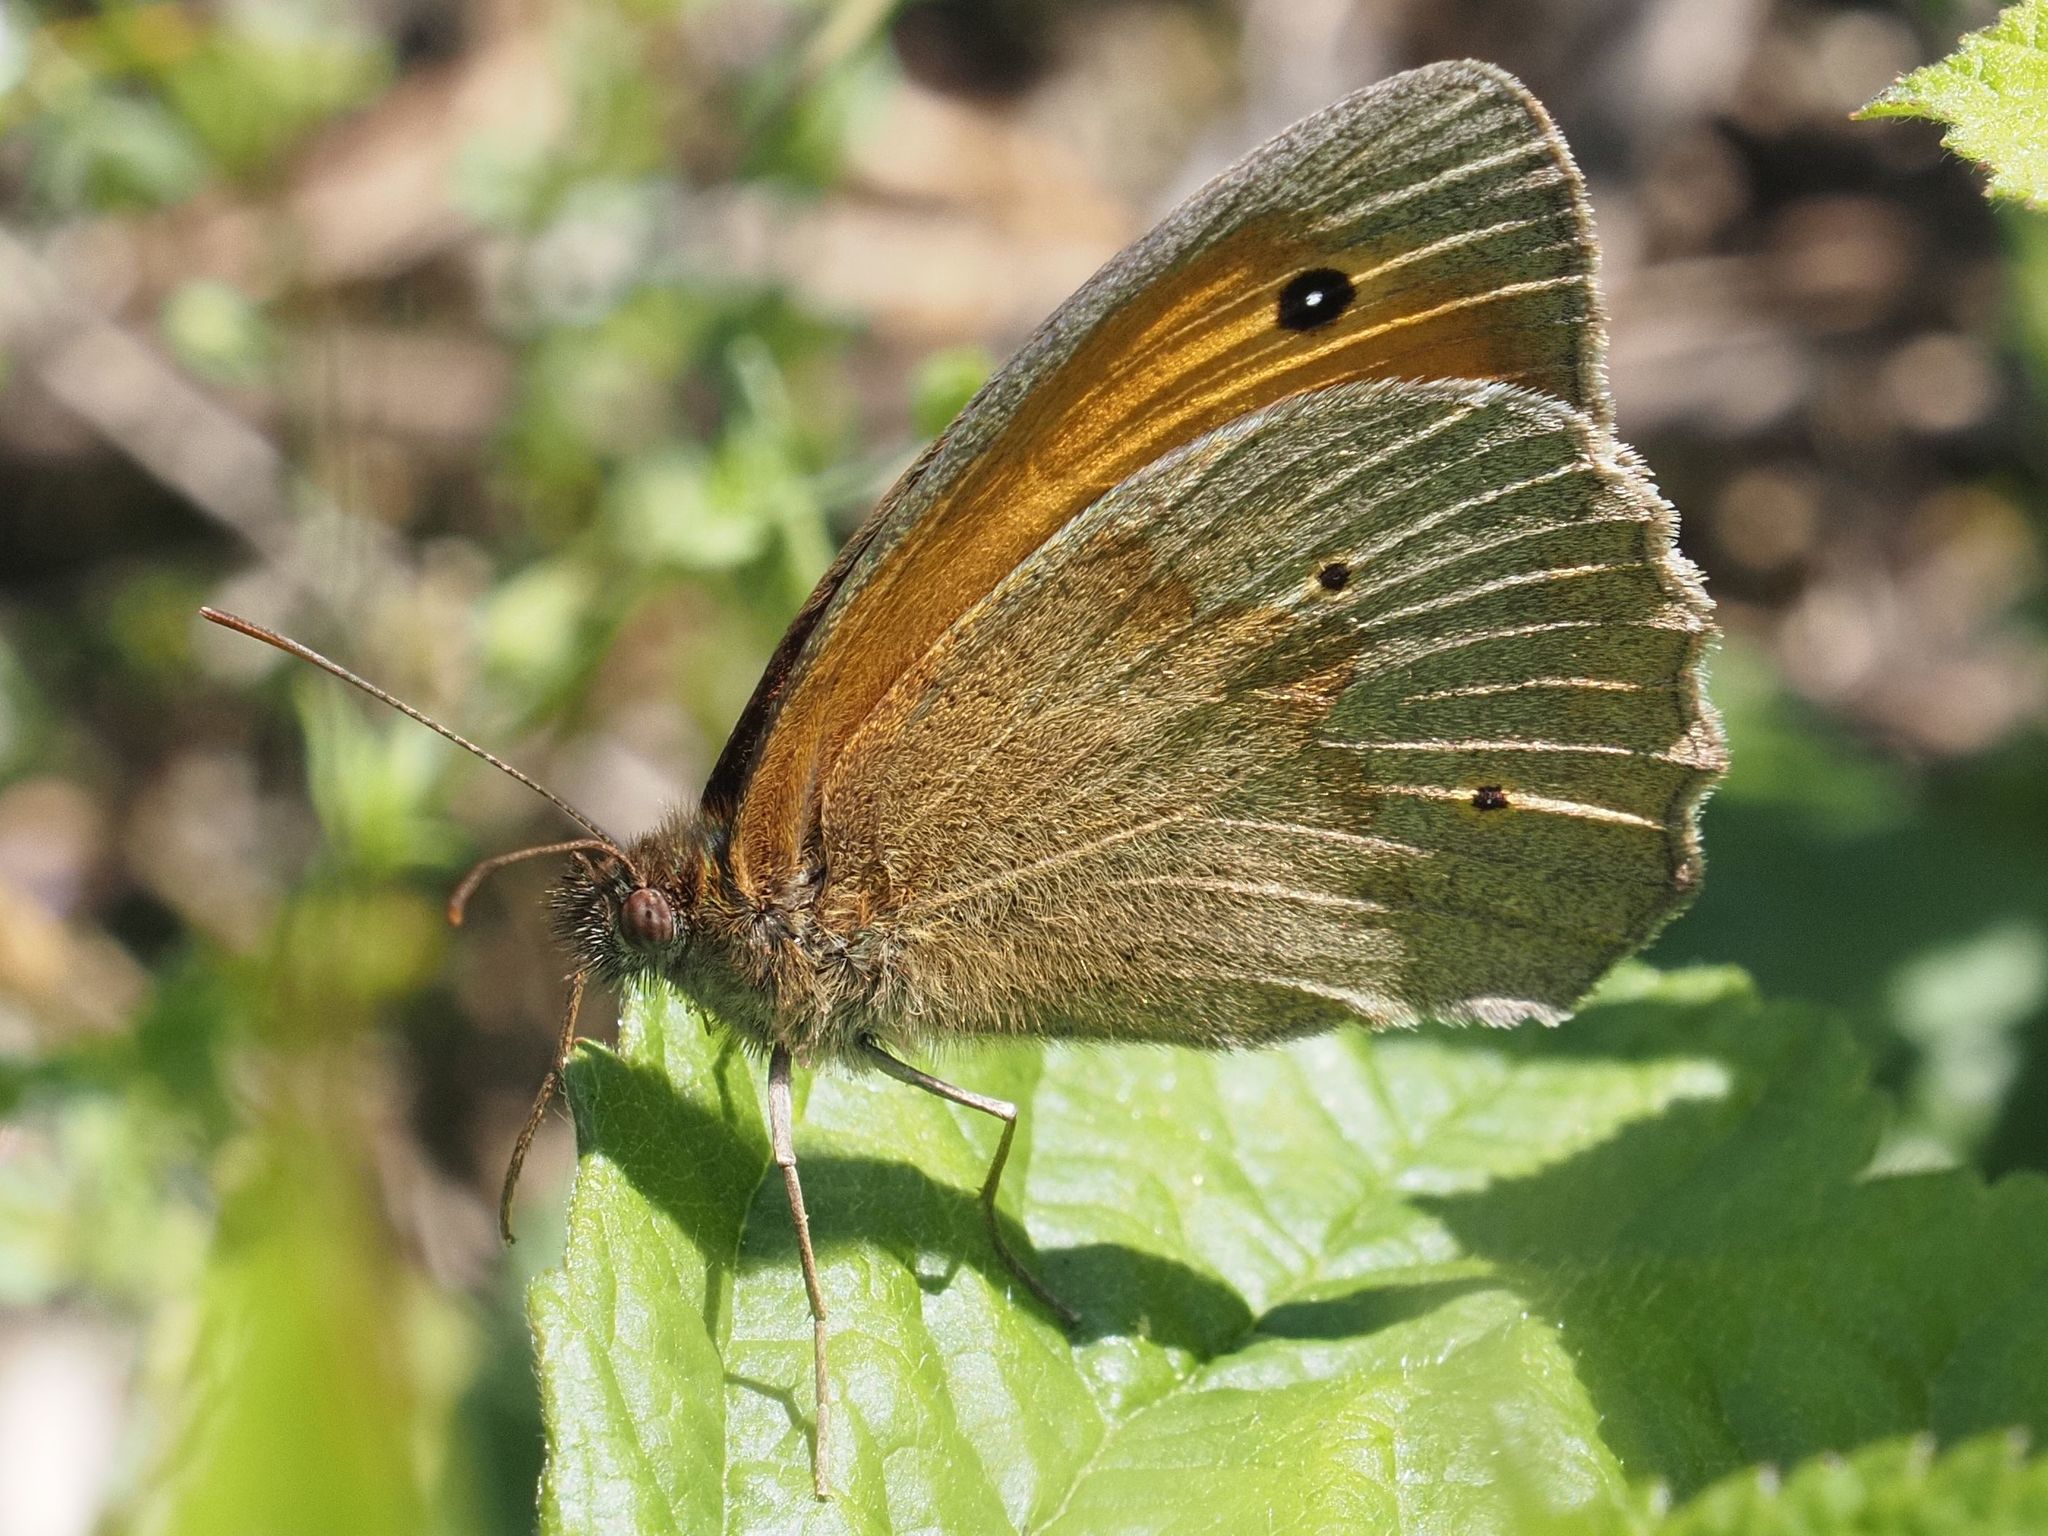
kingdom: Animalia
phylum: Arthropoda
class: Insecta
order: Lepidoptera
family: Nymphalidae
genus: Maniola
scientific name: Maniola jurtina
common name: Meadow brown
